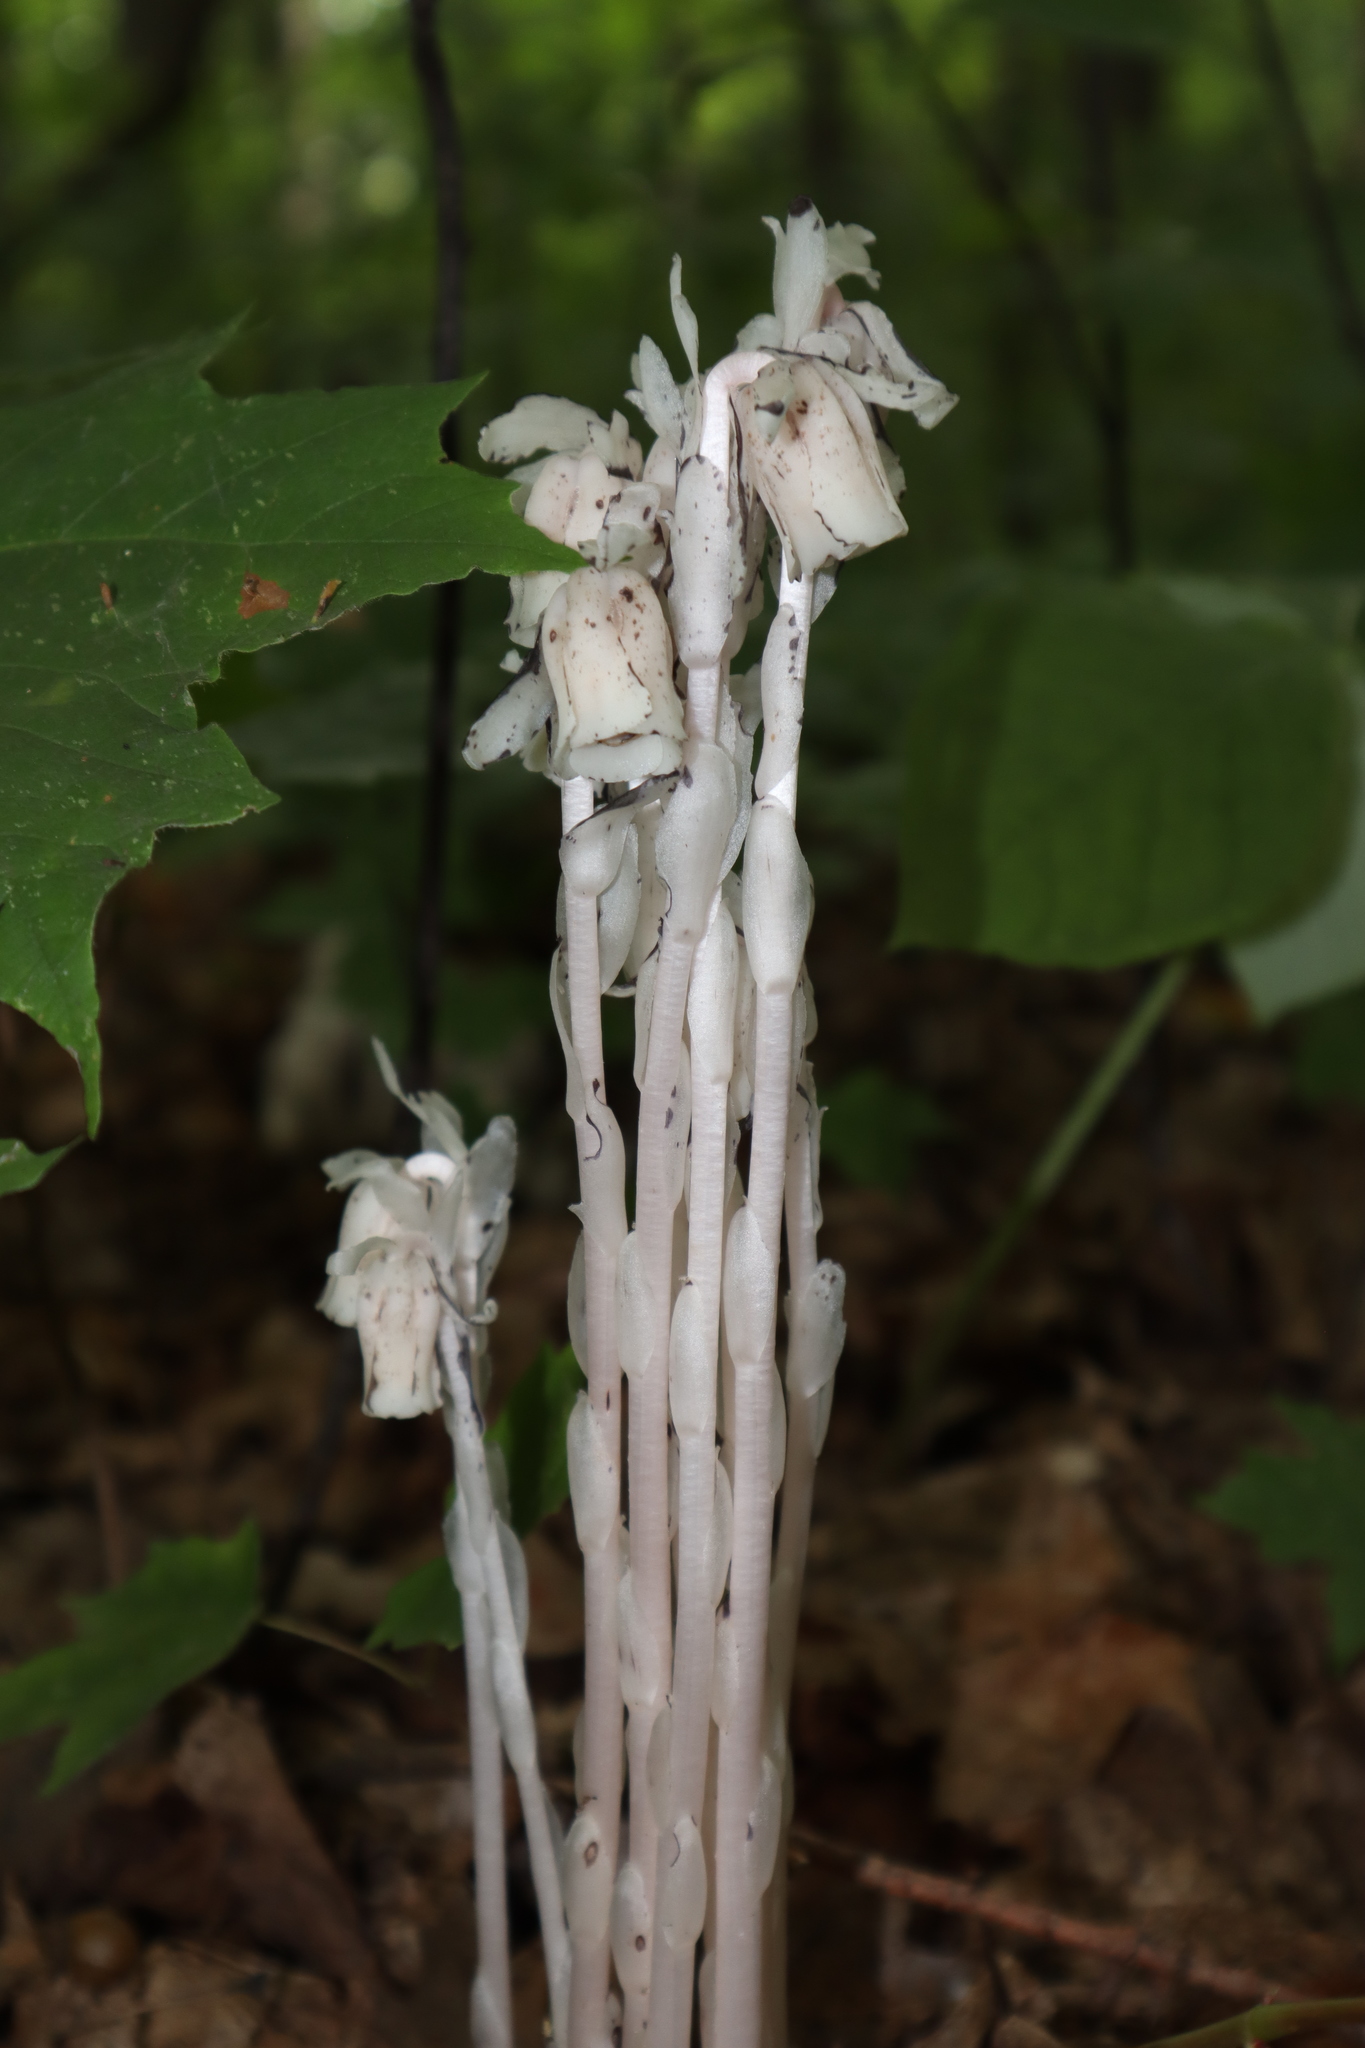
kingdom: Plantae
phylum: Tracheophyta
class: Magnoliopsida
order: Ericales
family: Ericaceae
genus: Monotropa
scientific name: Monotropa uniflora
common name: Convulsion root
